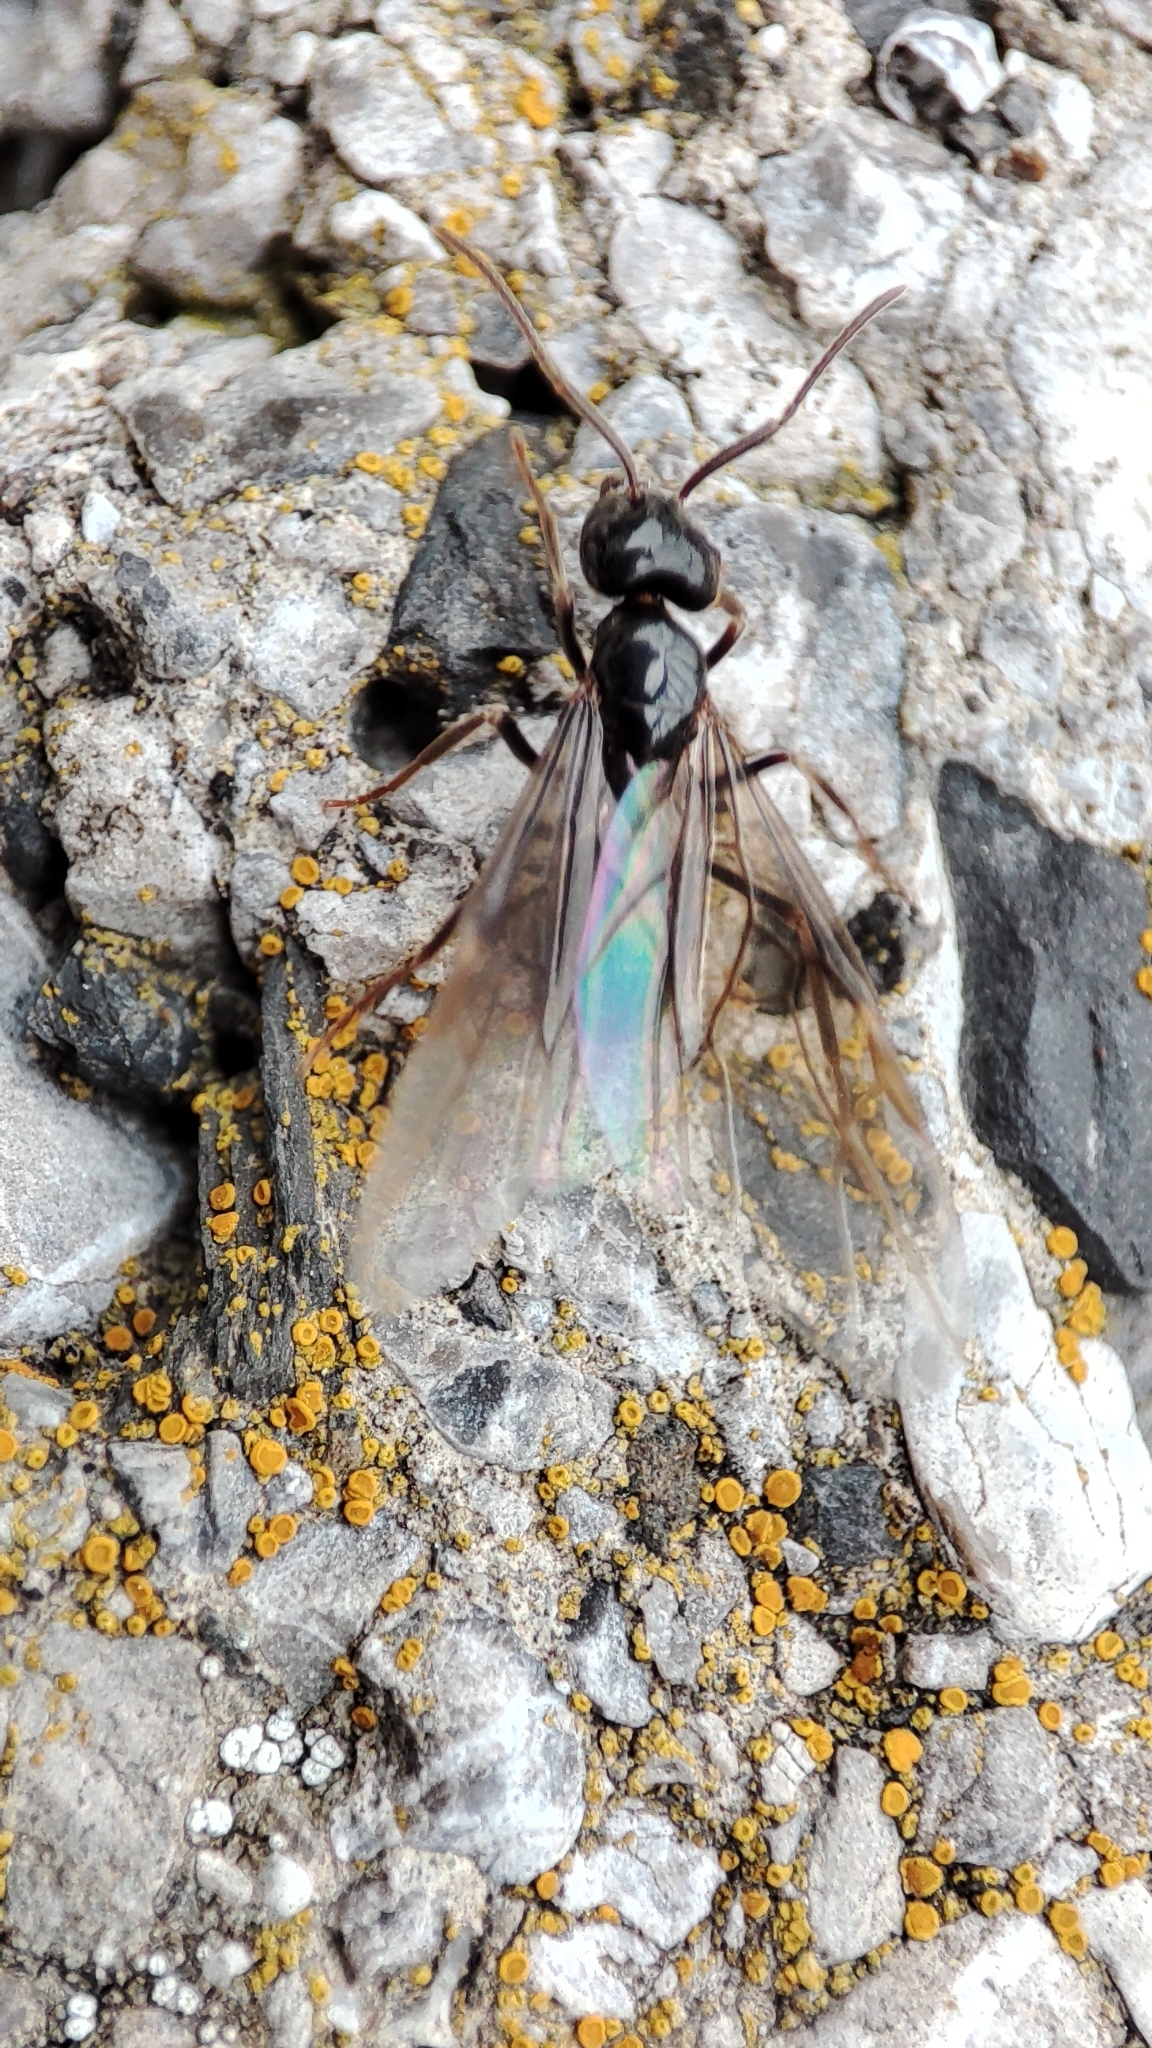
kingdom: Animalia
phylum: Arthropoda
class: Insecta
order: Hymenoptera
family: Formicidae
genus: Lasius
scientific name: Lasius fuliginosus
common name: Jet ant
